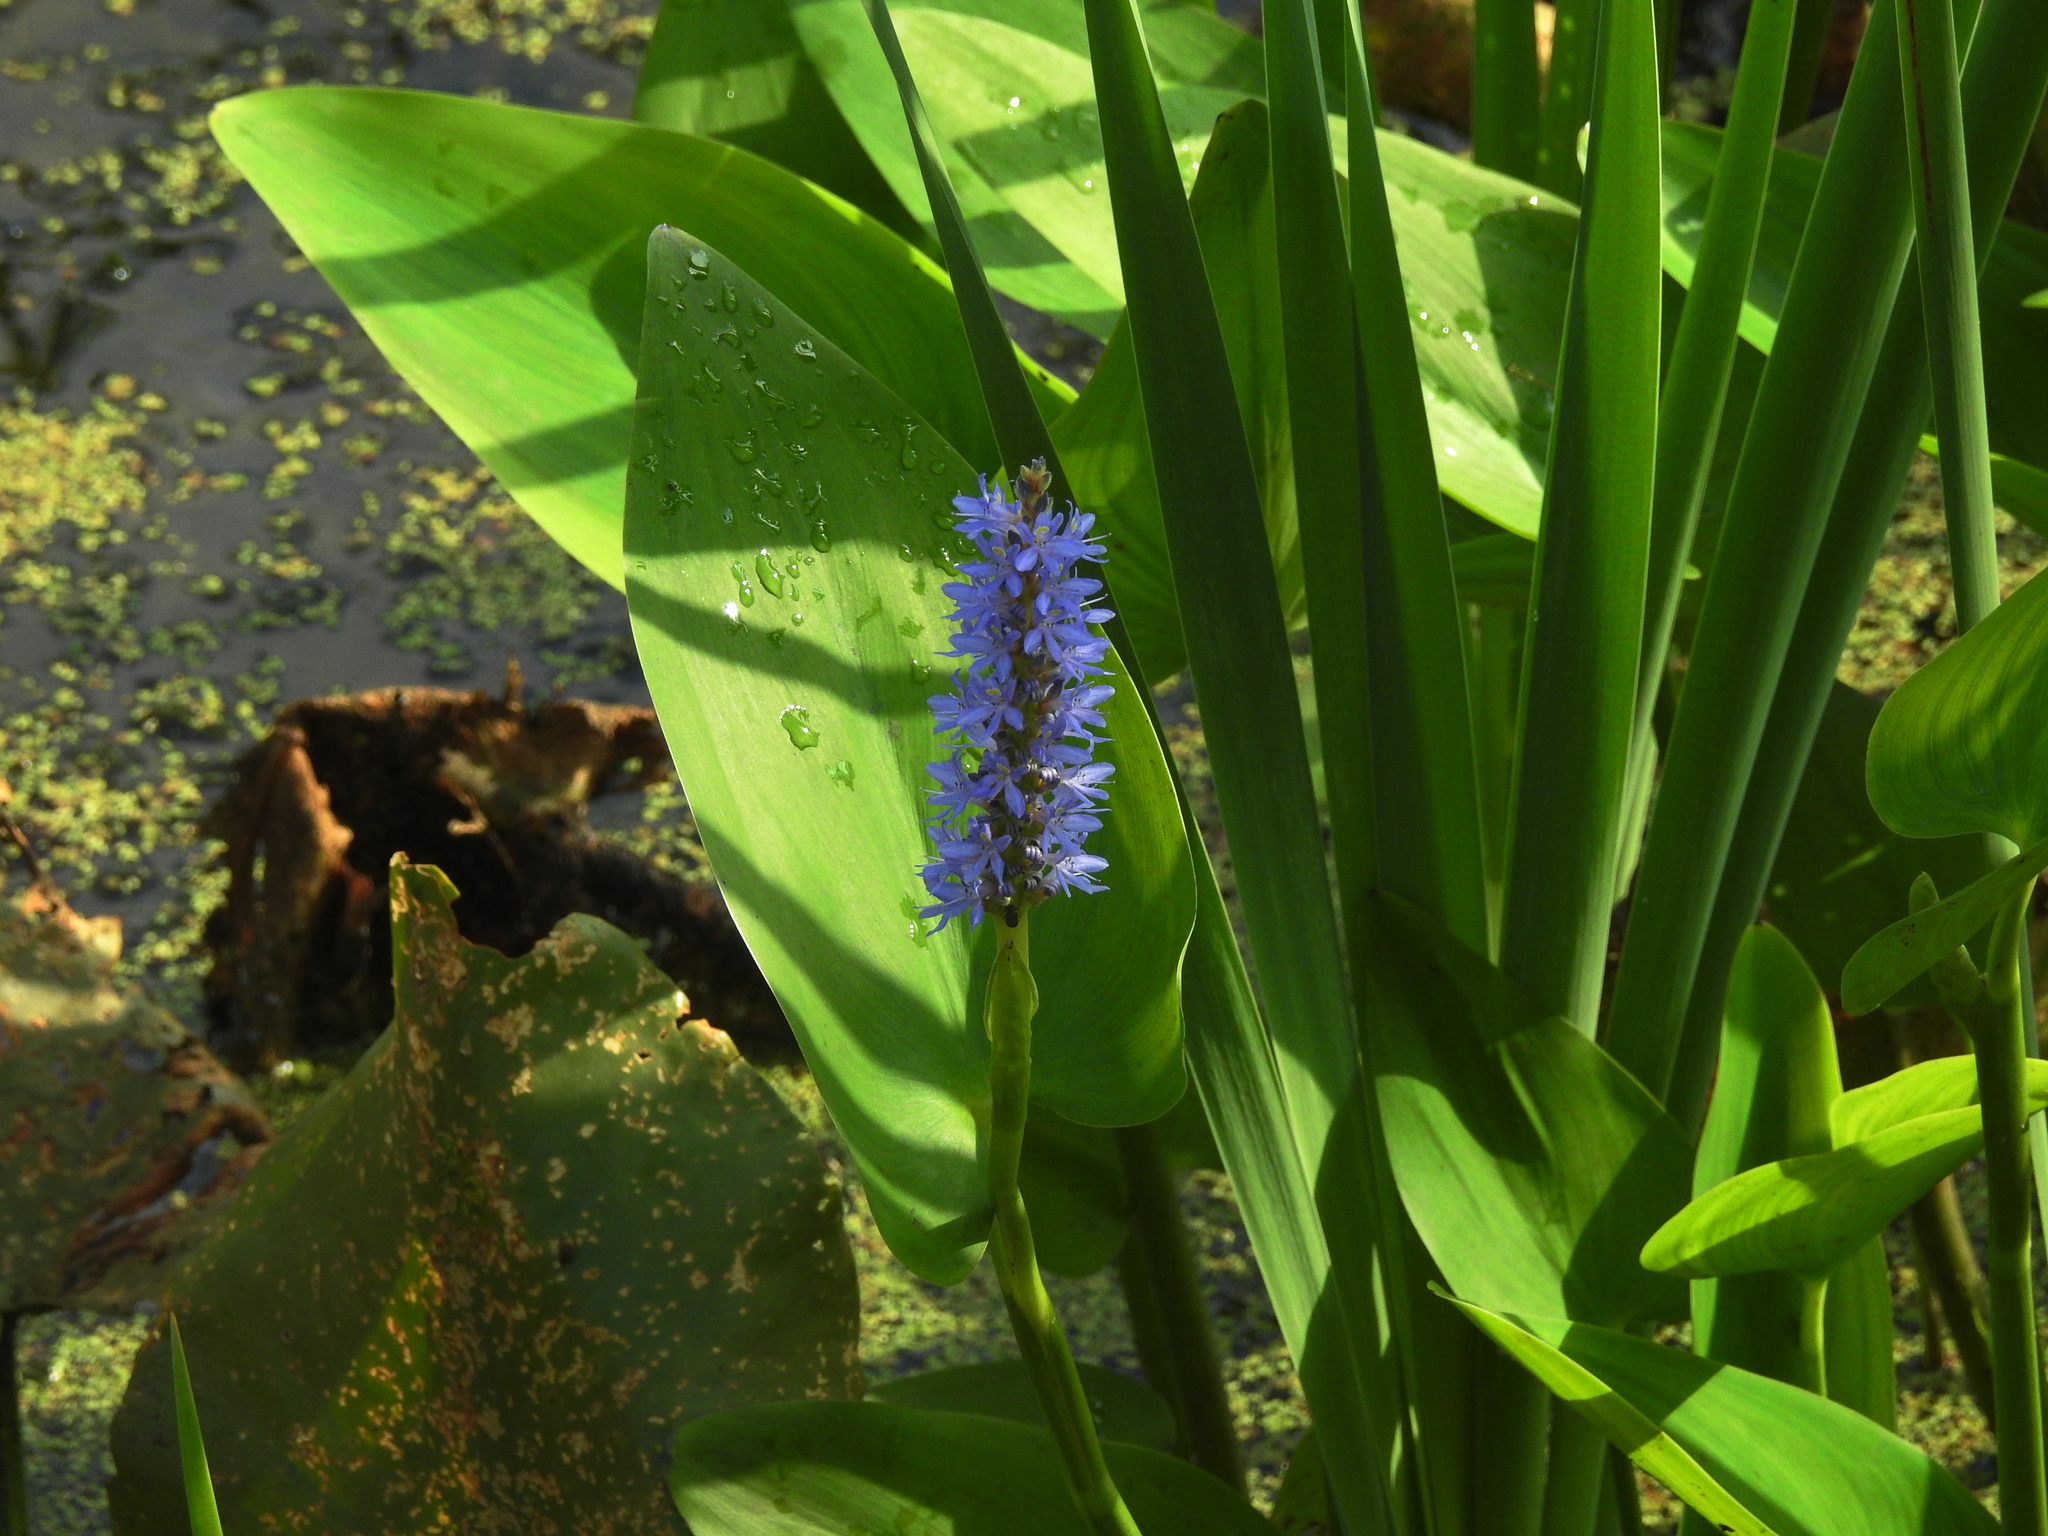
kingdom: Plantae
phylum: Tracheophyta
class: Liliopsida
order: Commelinales
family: Pontederiaceae
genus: Pontederia
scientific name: Pontederia cordata
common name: Pickerelweed
